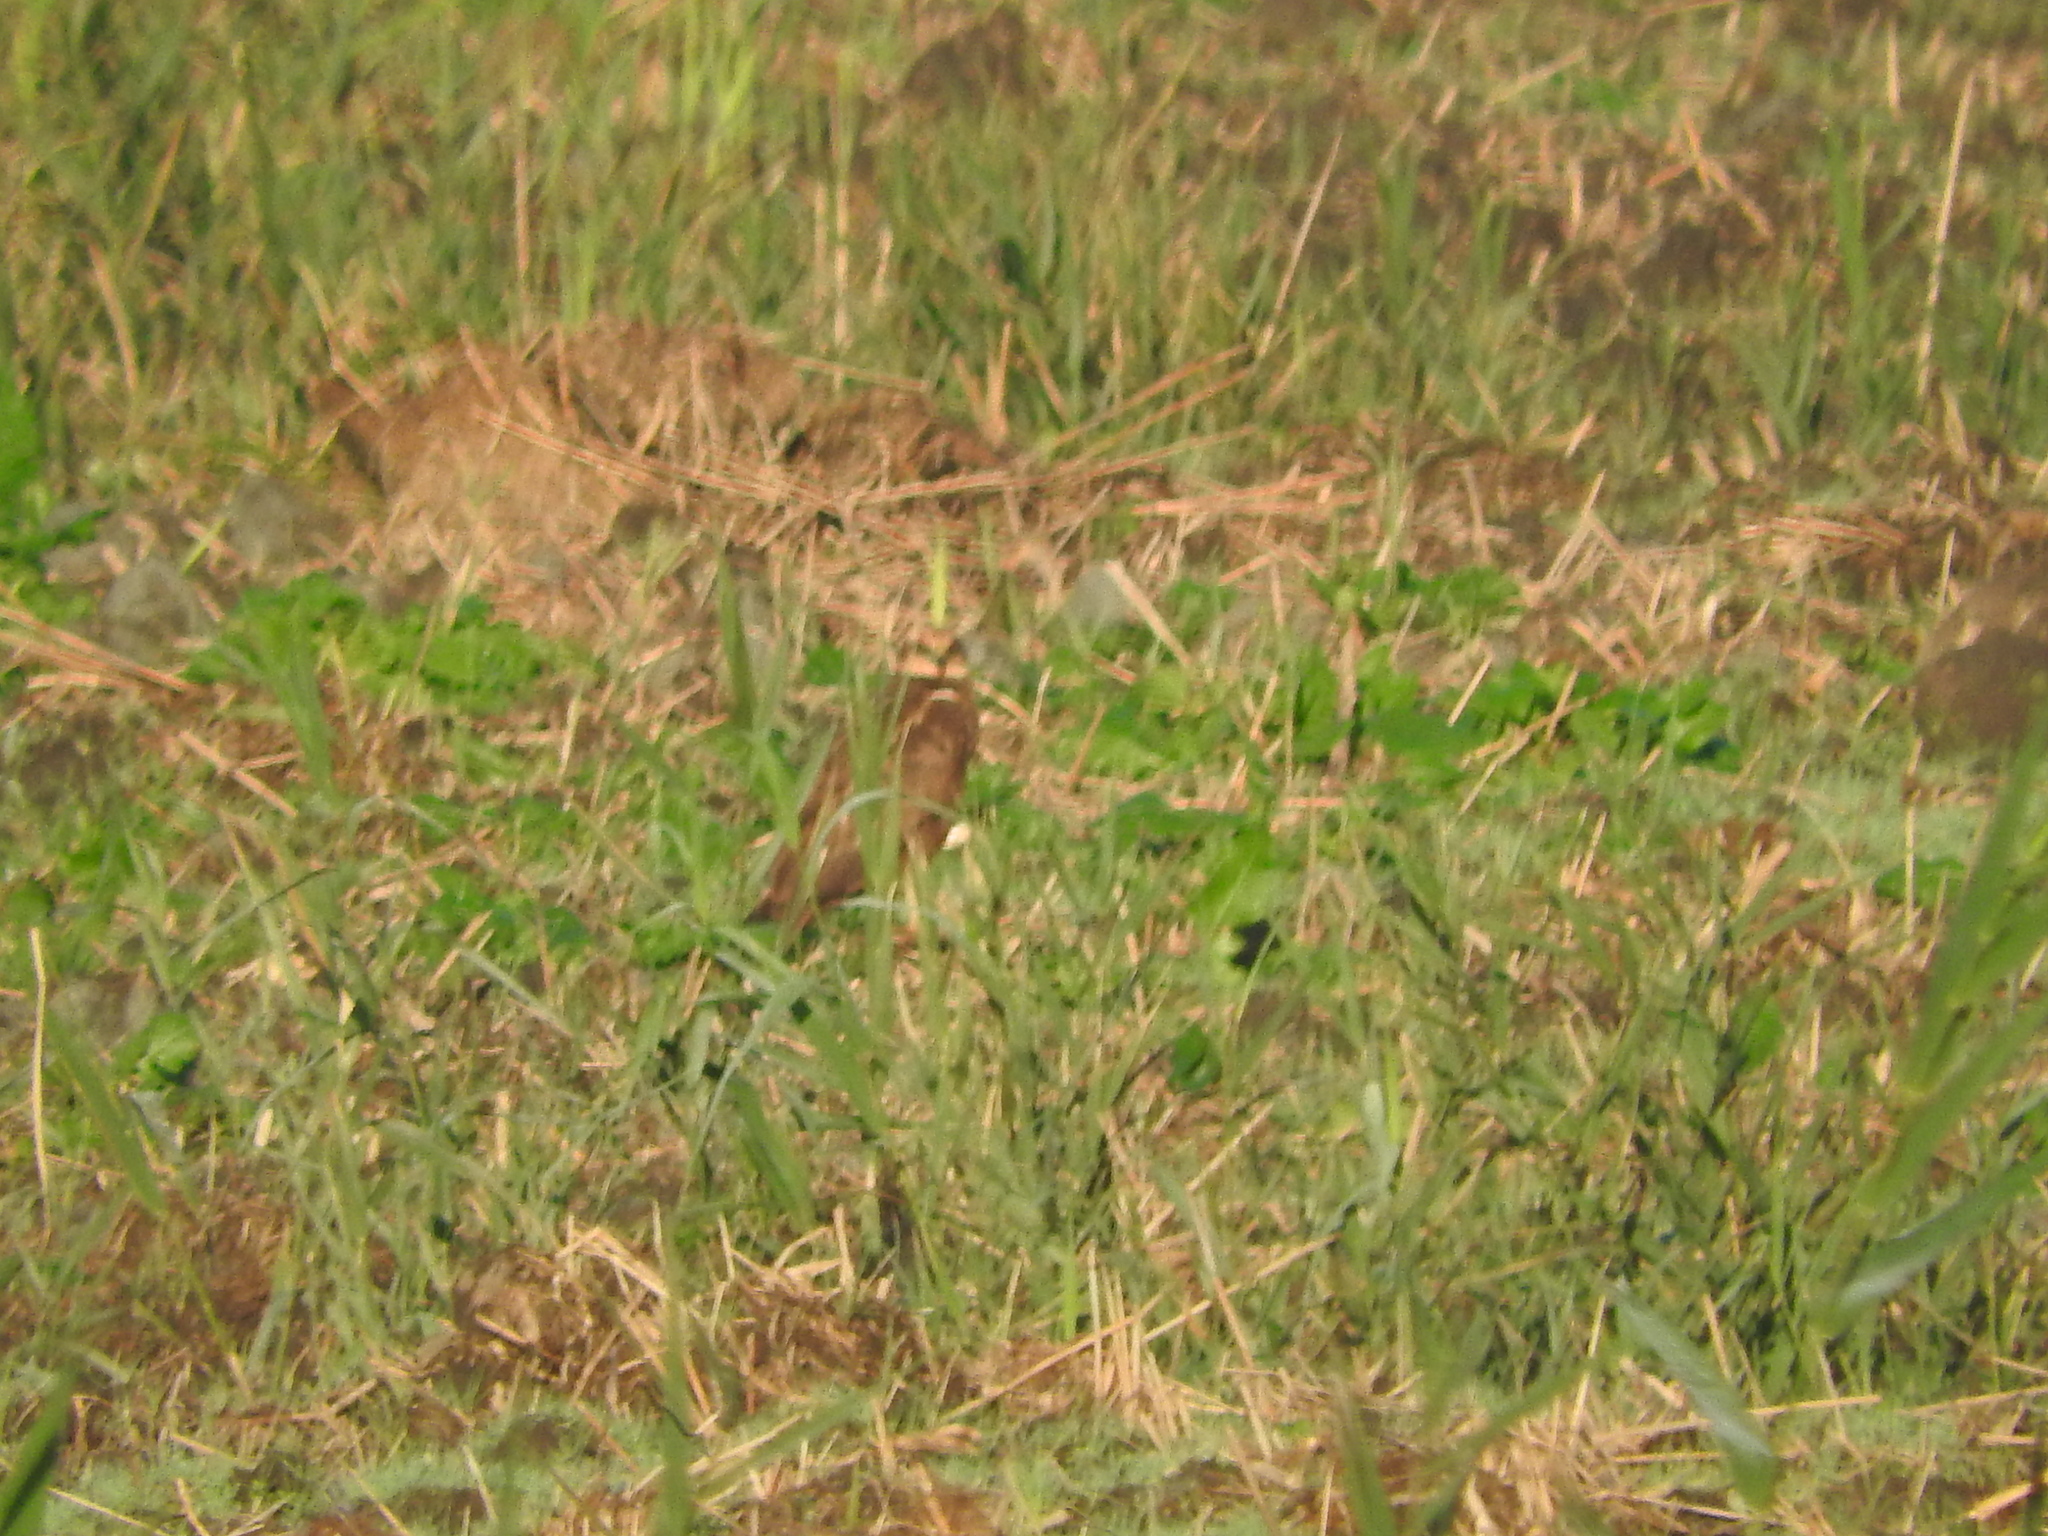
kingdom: Animalia
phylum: Chordata
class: Aves
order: Accipitriformes
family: Accipitridae
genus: Circus
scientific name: Circus aeruginosus
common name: Western marsh harrier
